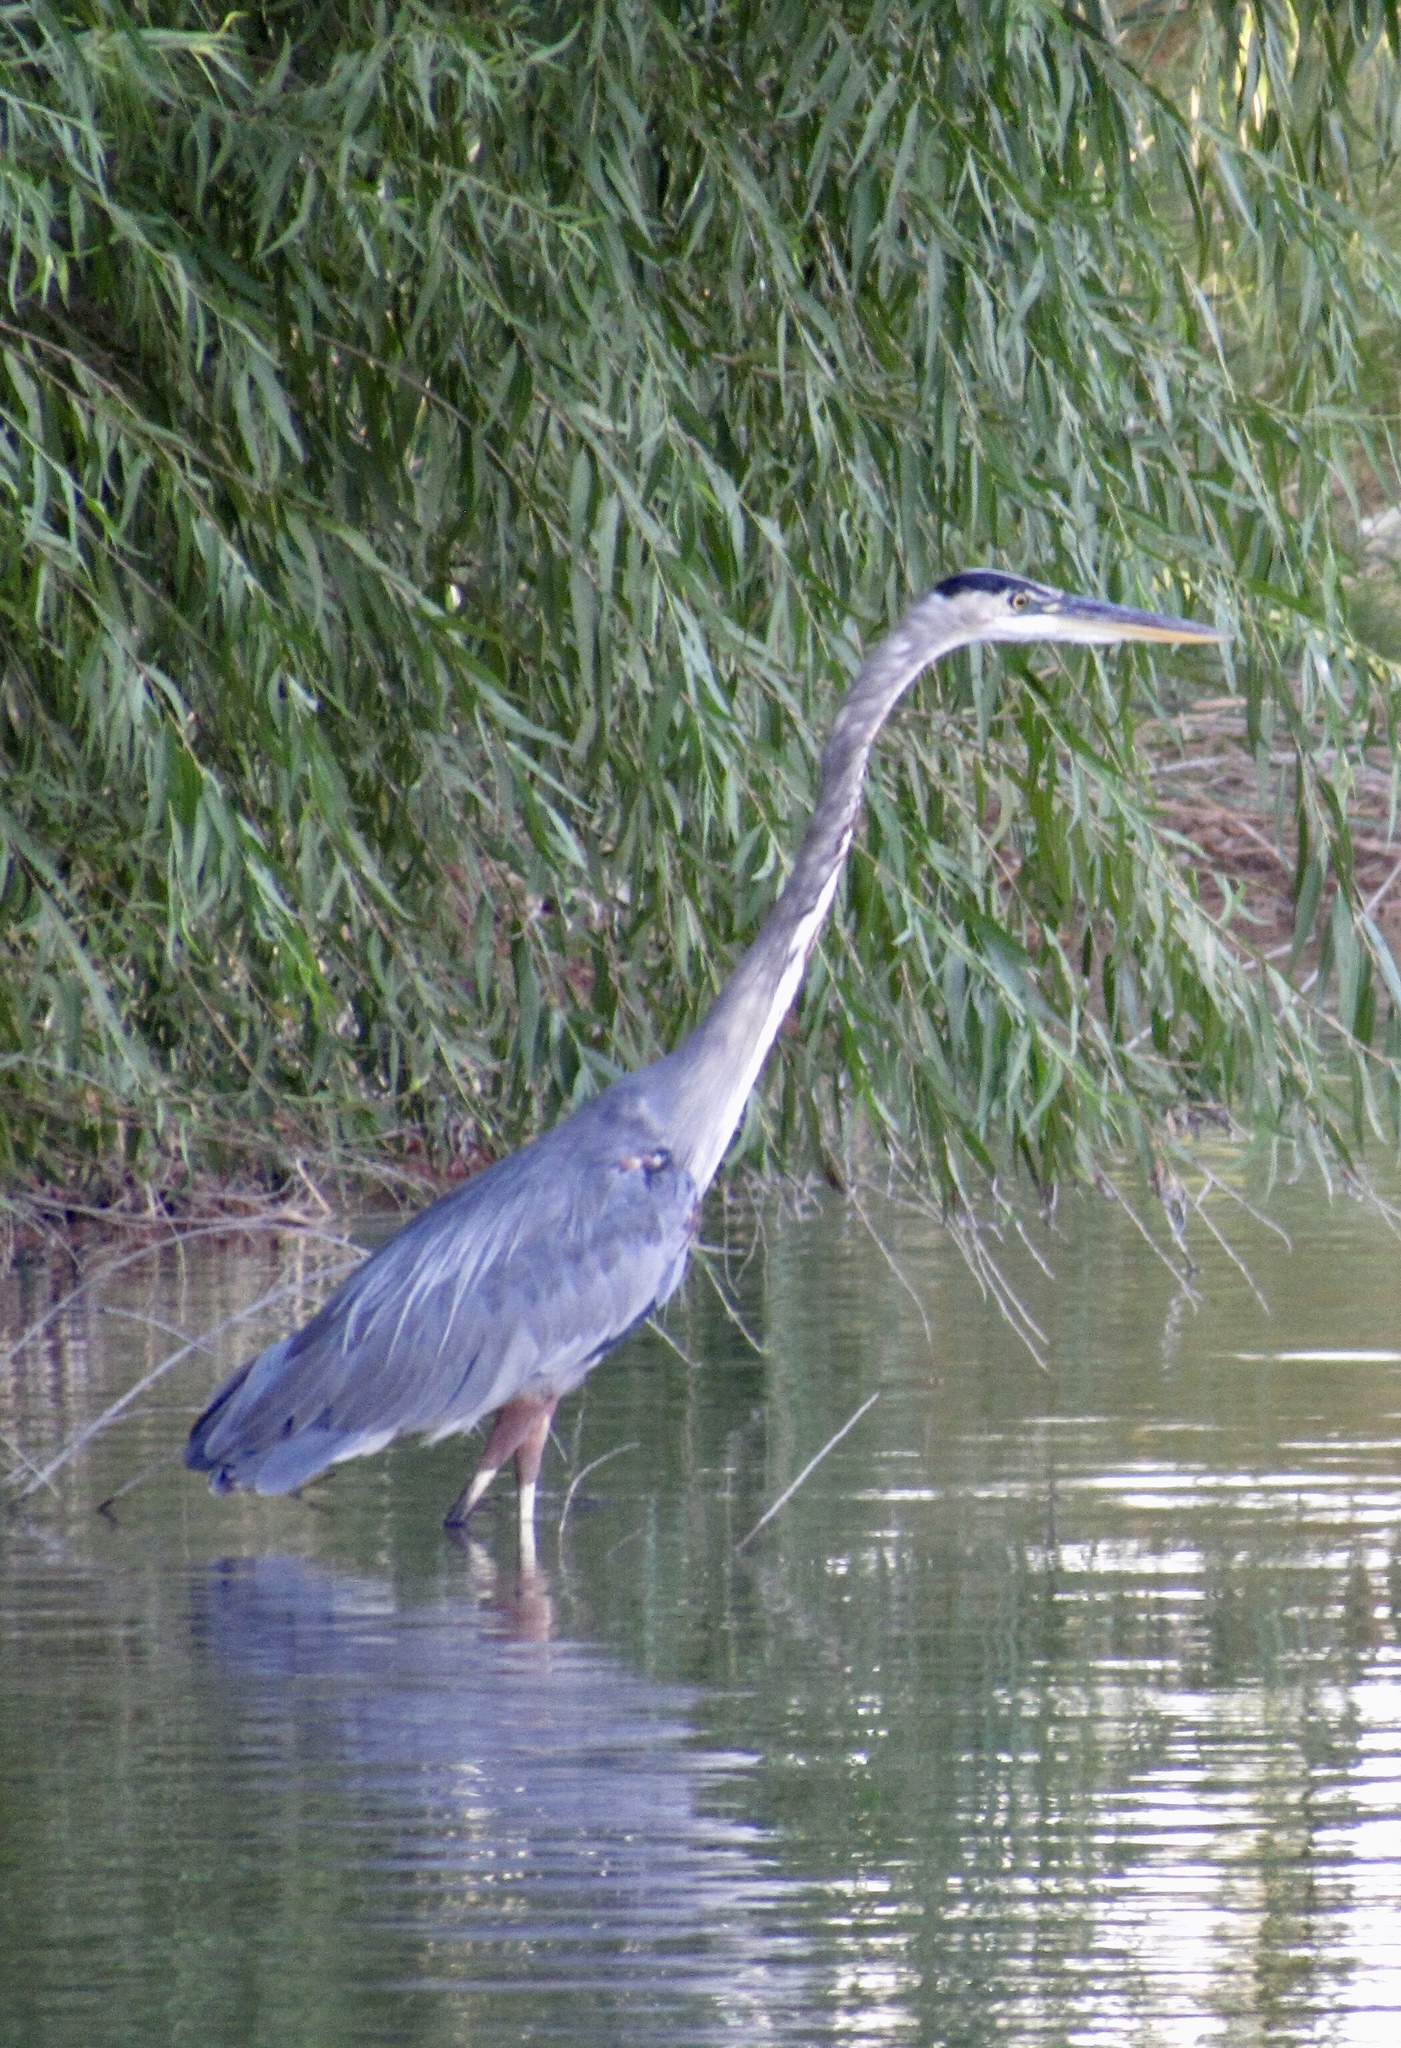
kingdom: Animalia
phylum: Chordata
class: Aves
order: Pelecaniformes
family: Ardeidae
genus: Ardea
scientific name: Ardea herodias
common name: Great blue heron
